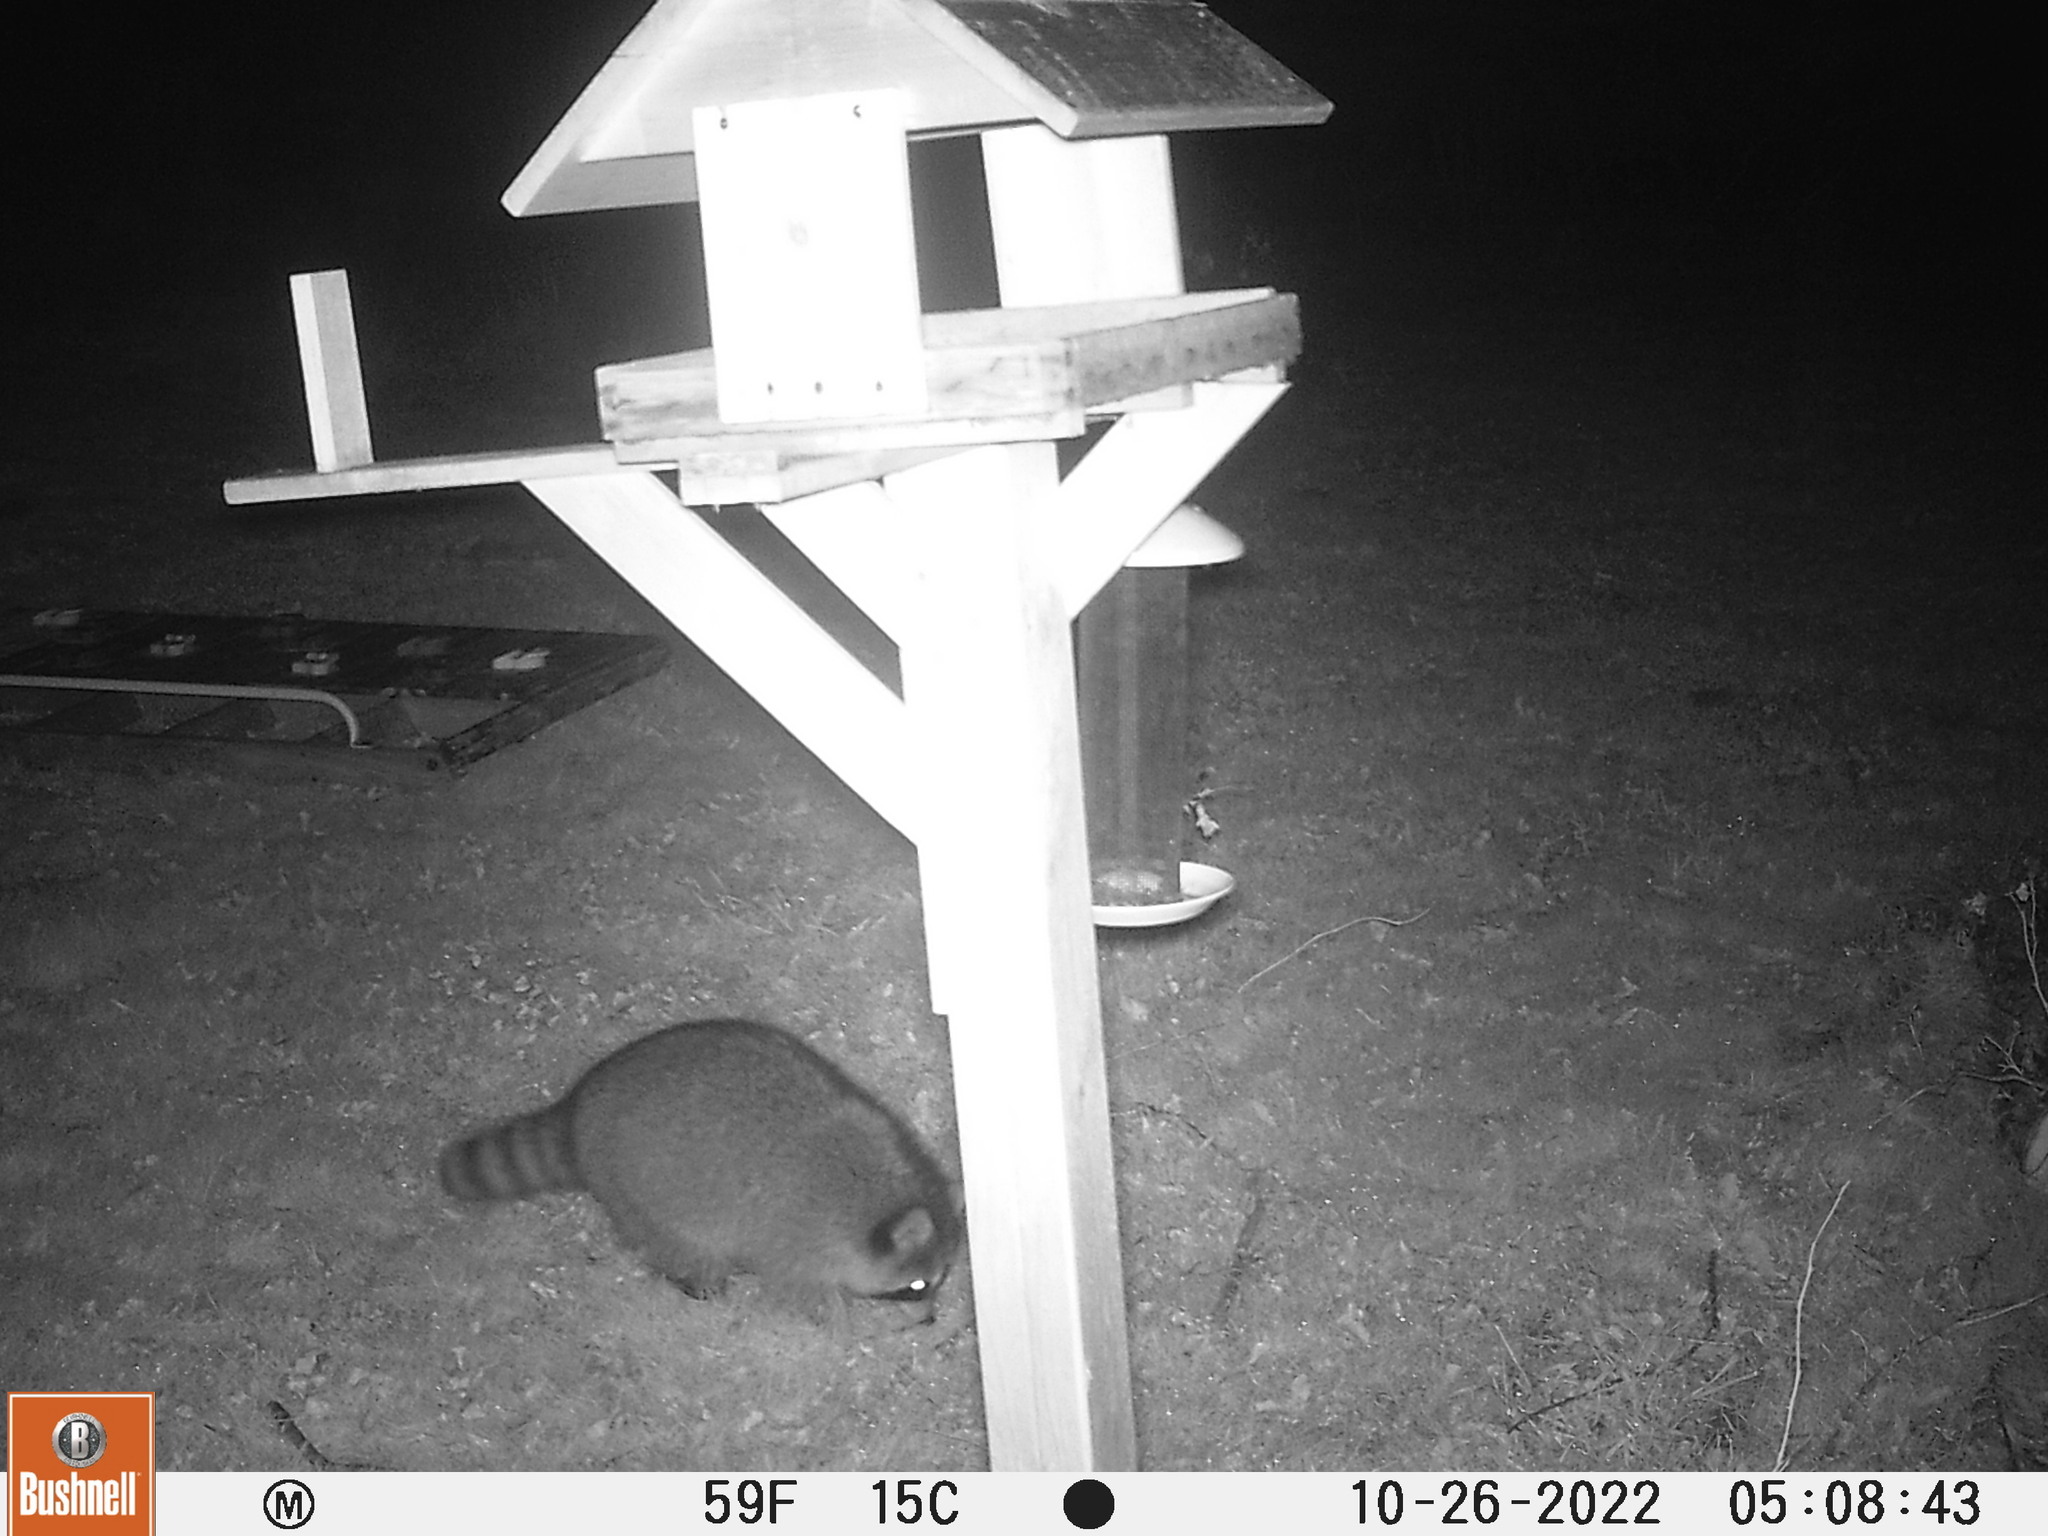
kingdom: Animalia
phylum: Chordata
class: Mammalia
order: Carnivora
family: Procyonidae
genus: Procyon
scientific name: Procyon lotor
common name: Raccoon
